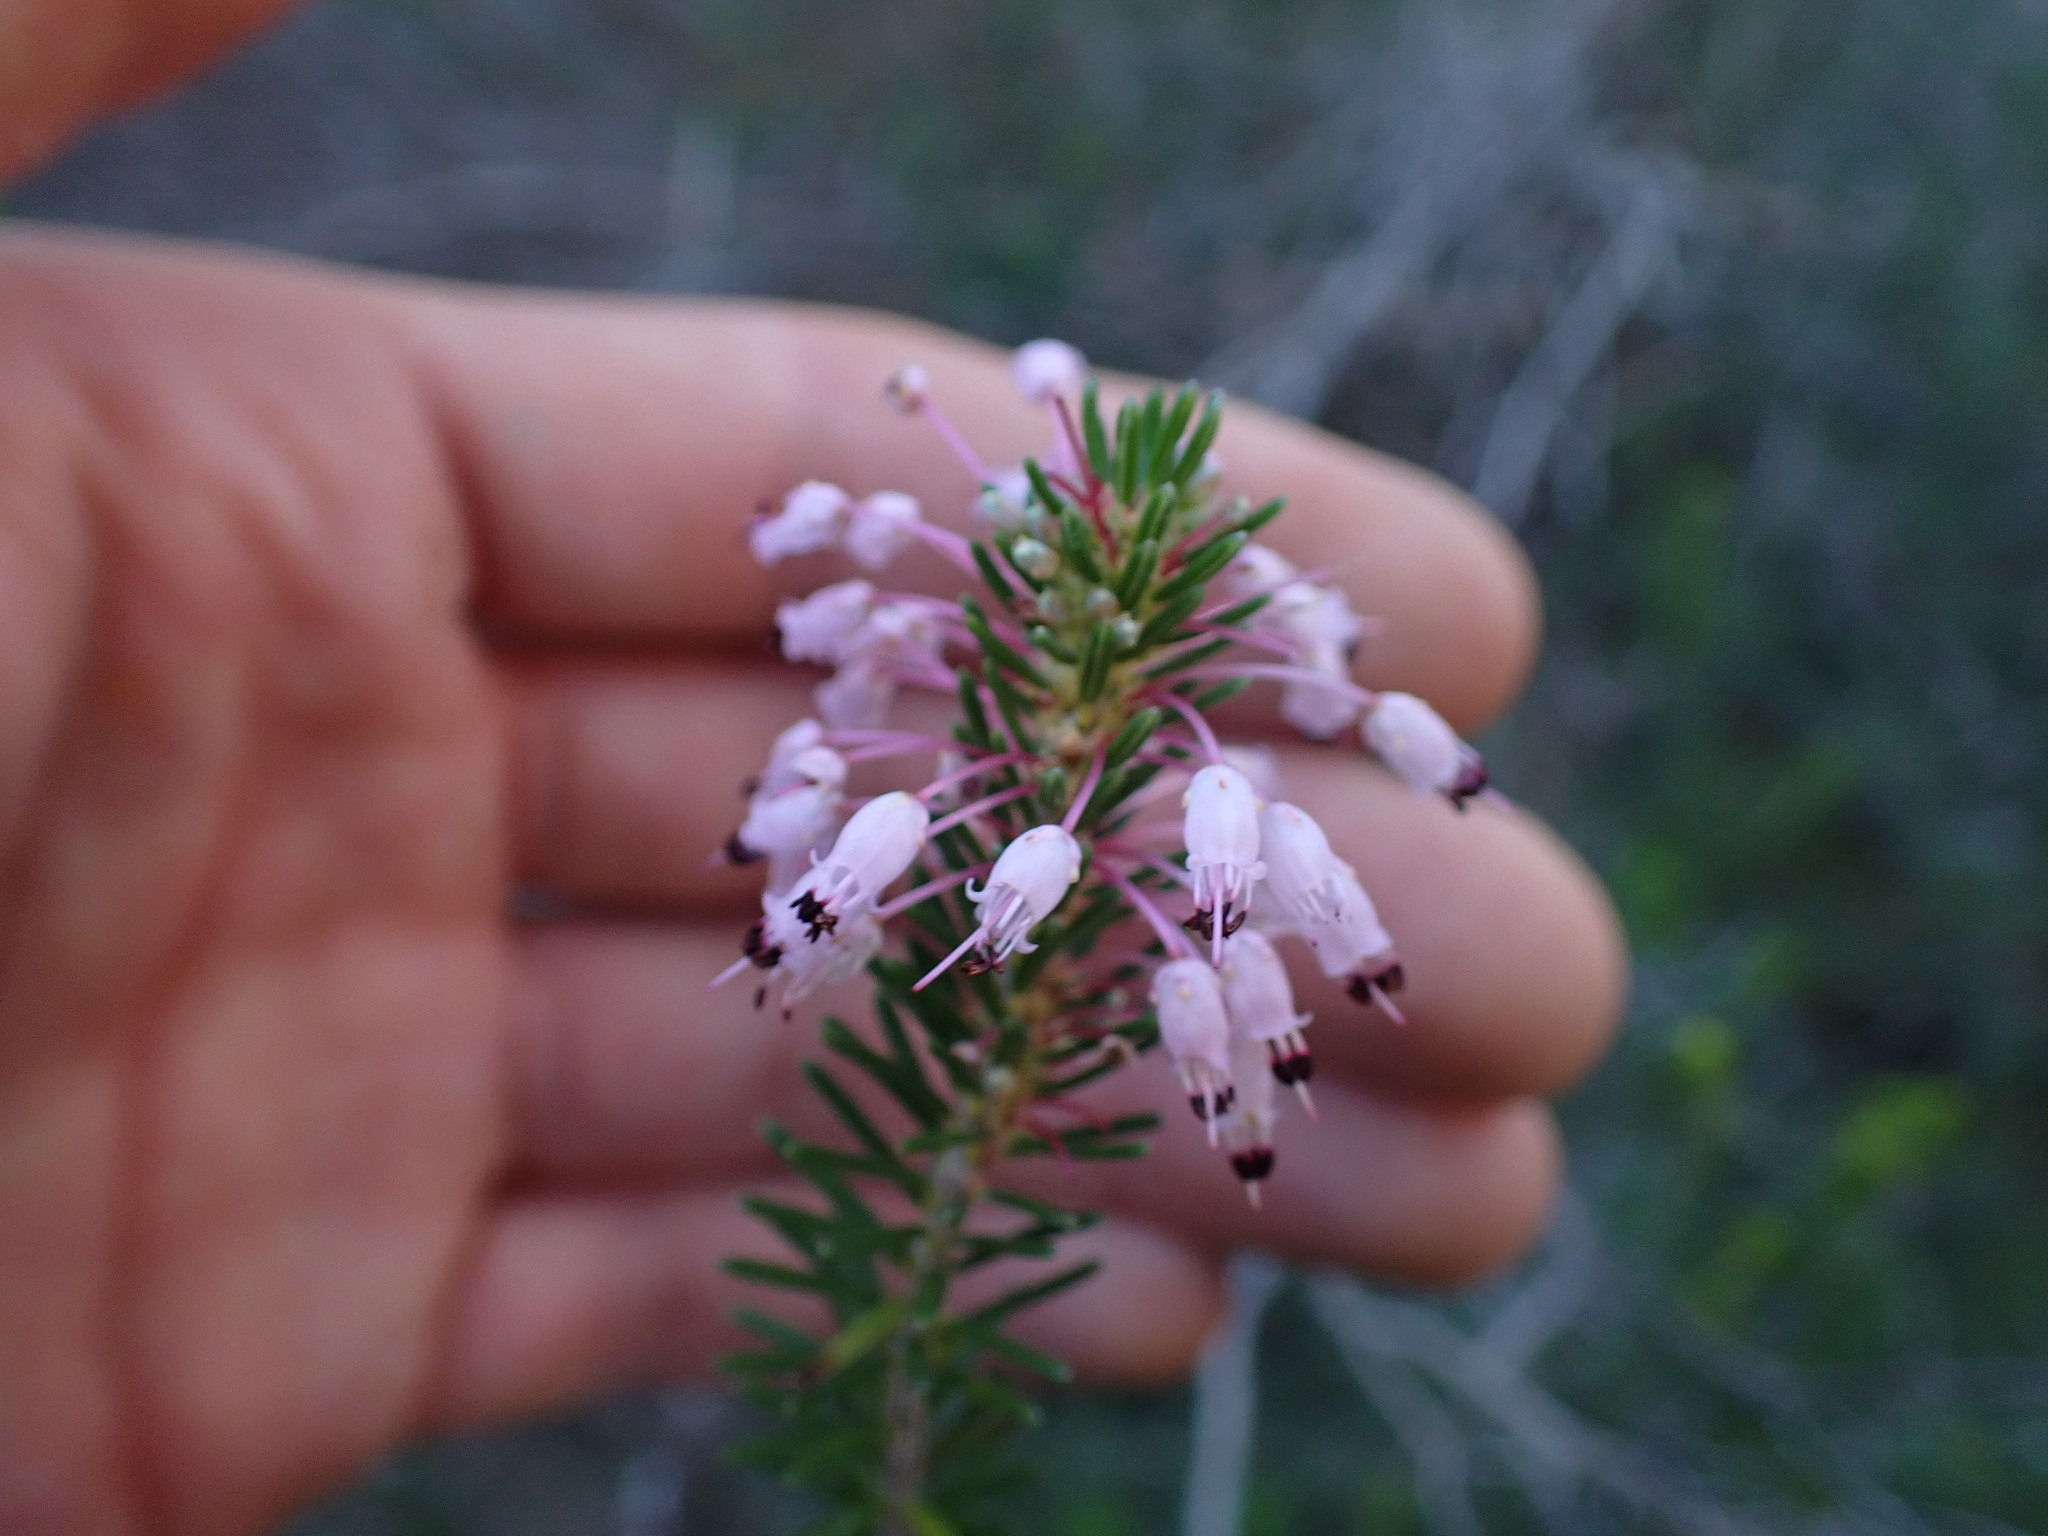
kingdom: Plantae
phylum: Tracheophyta
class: Magnoliopsida
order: Ericales
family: Ericaceae
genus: Erica
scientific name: Erica multiflora
